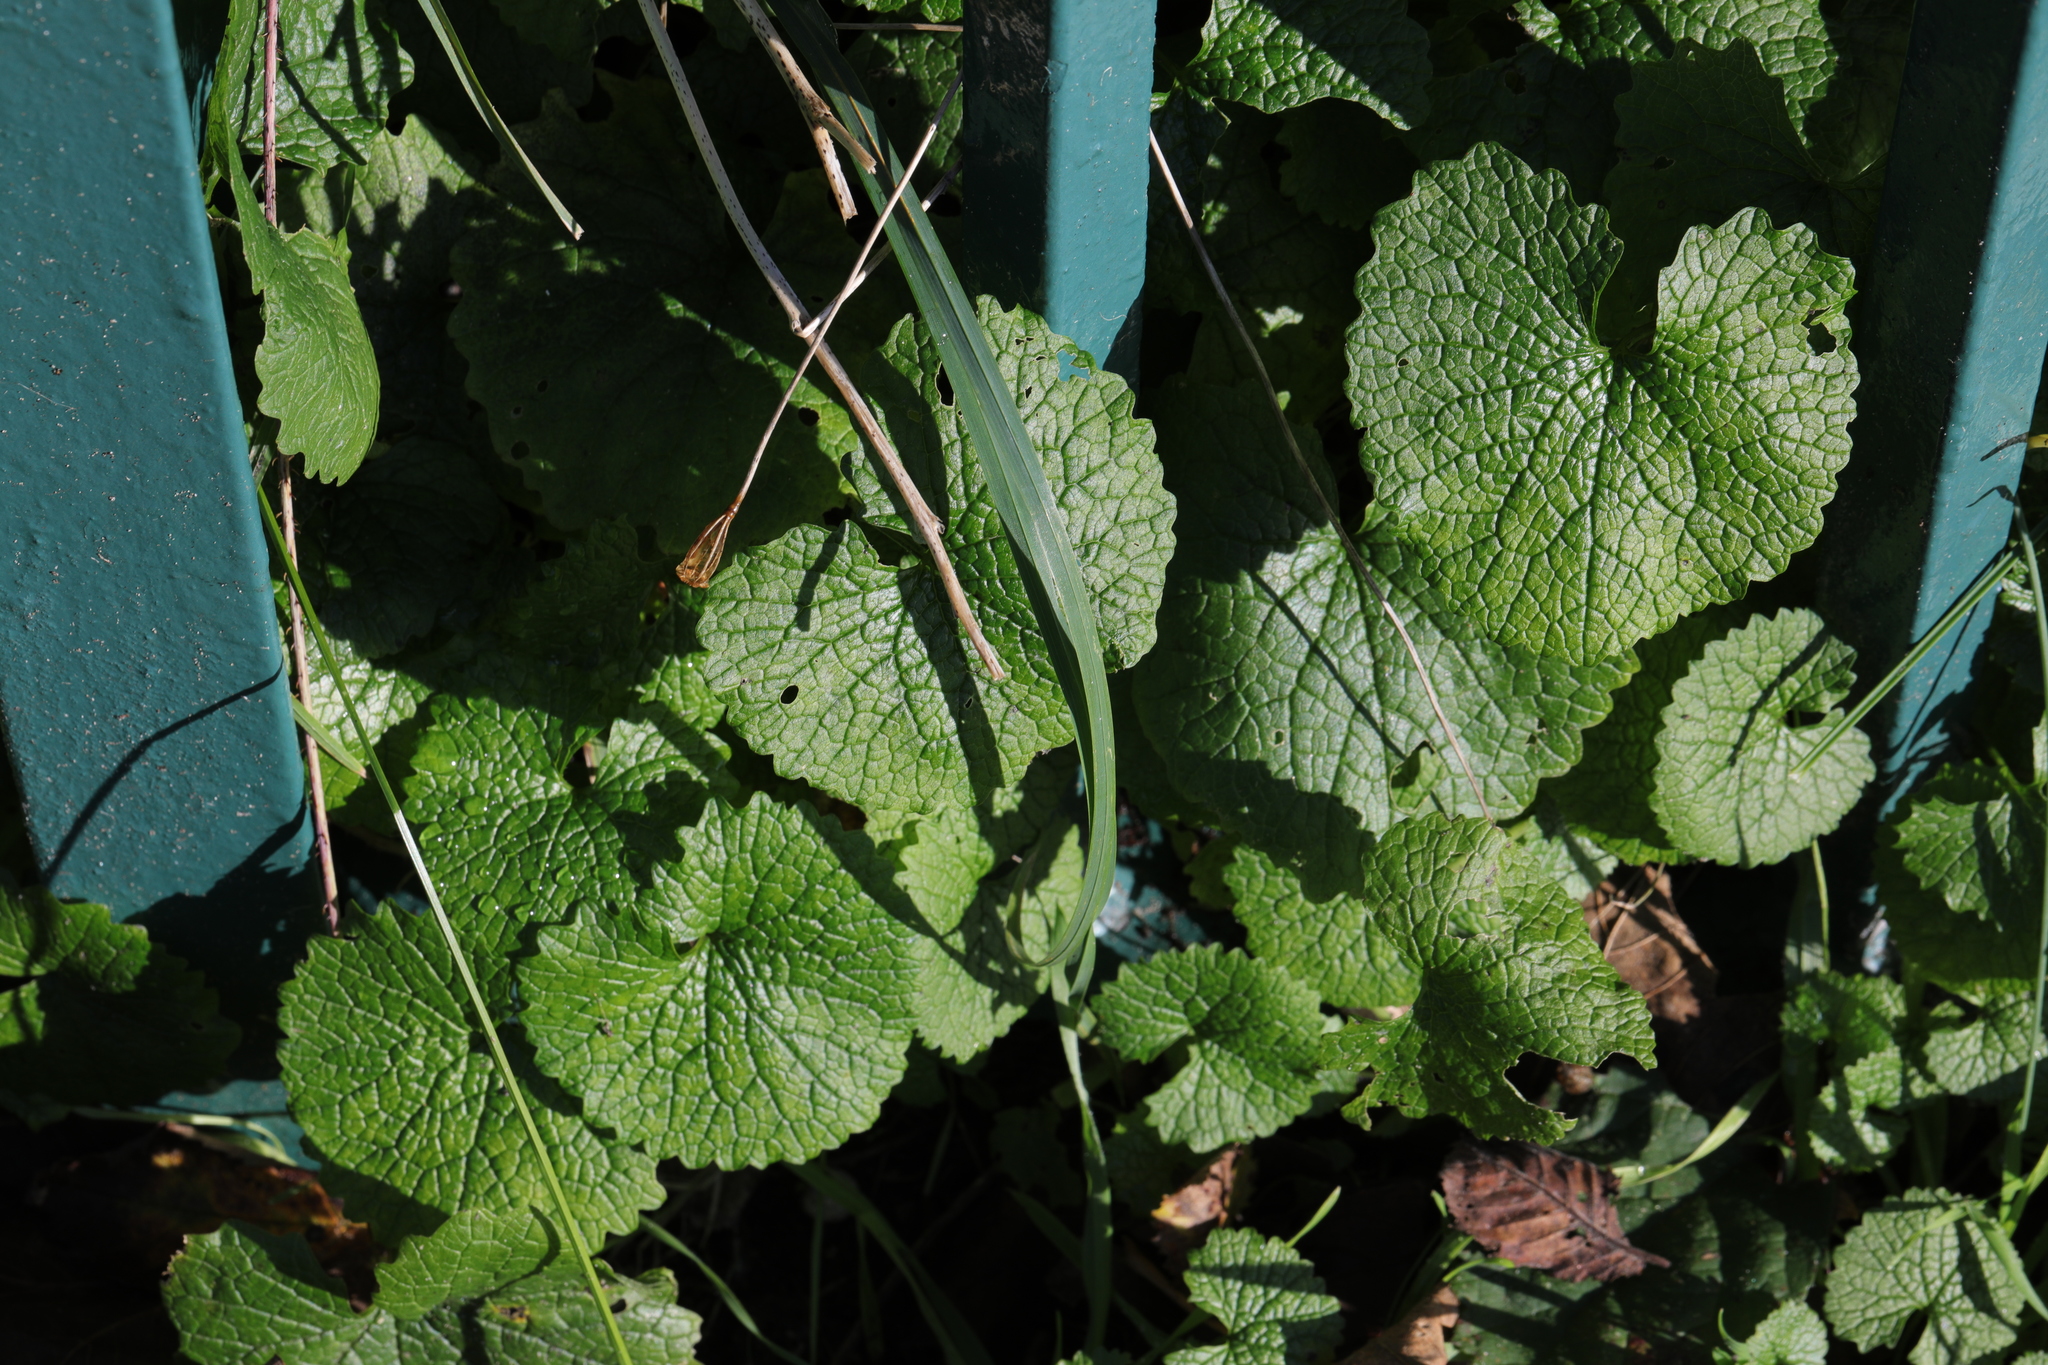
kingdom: Plantae
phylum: Tracheophyta
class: Magnoliopsida
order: Brassicales
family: Brassicaceae
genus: Alliaria
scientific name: Alliaria petiolata
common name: Garlic mustard
